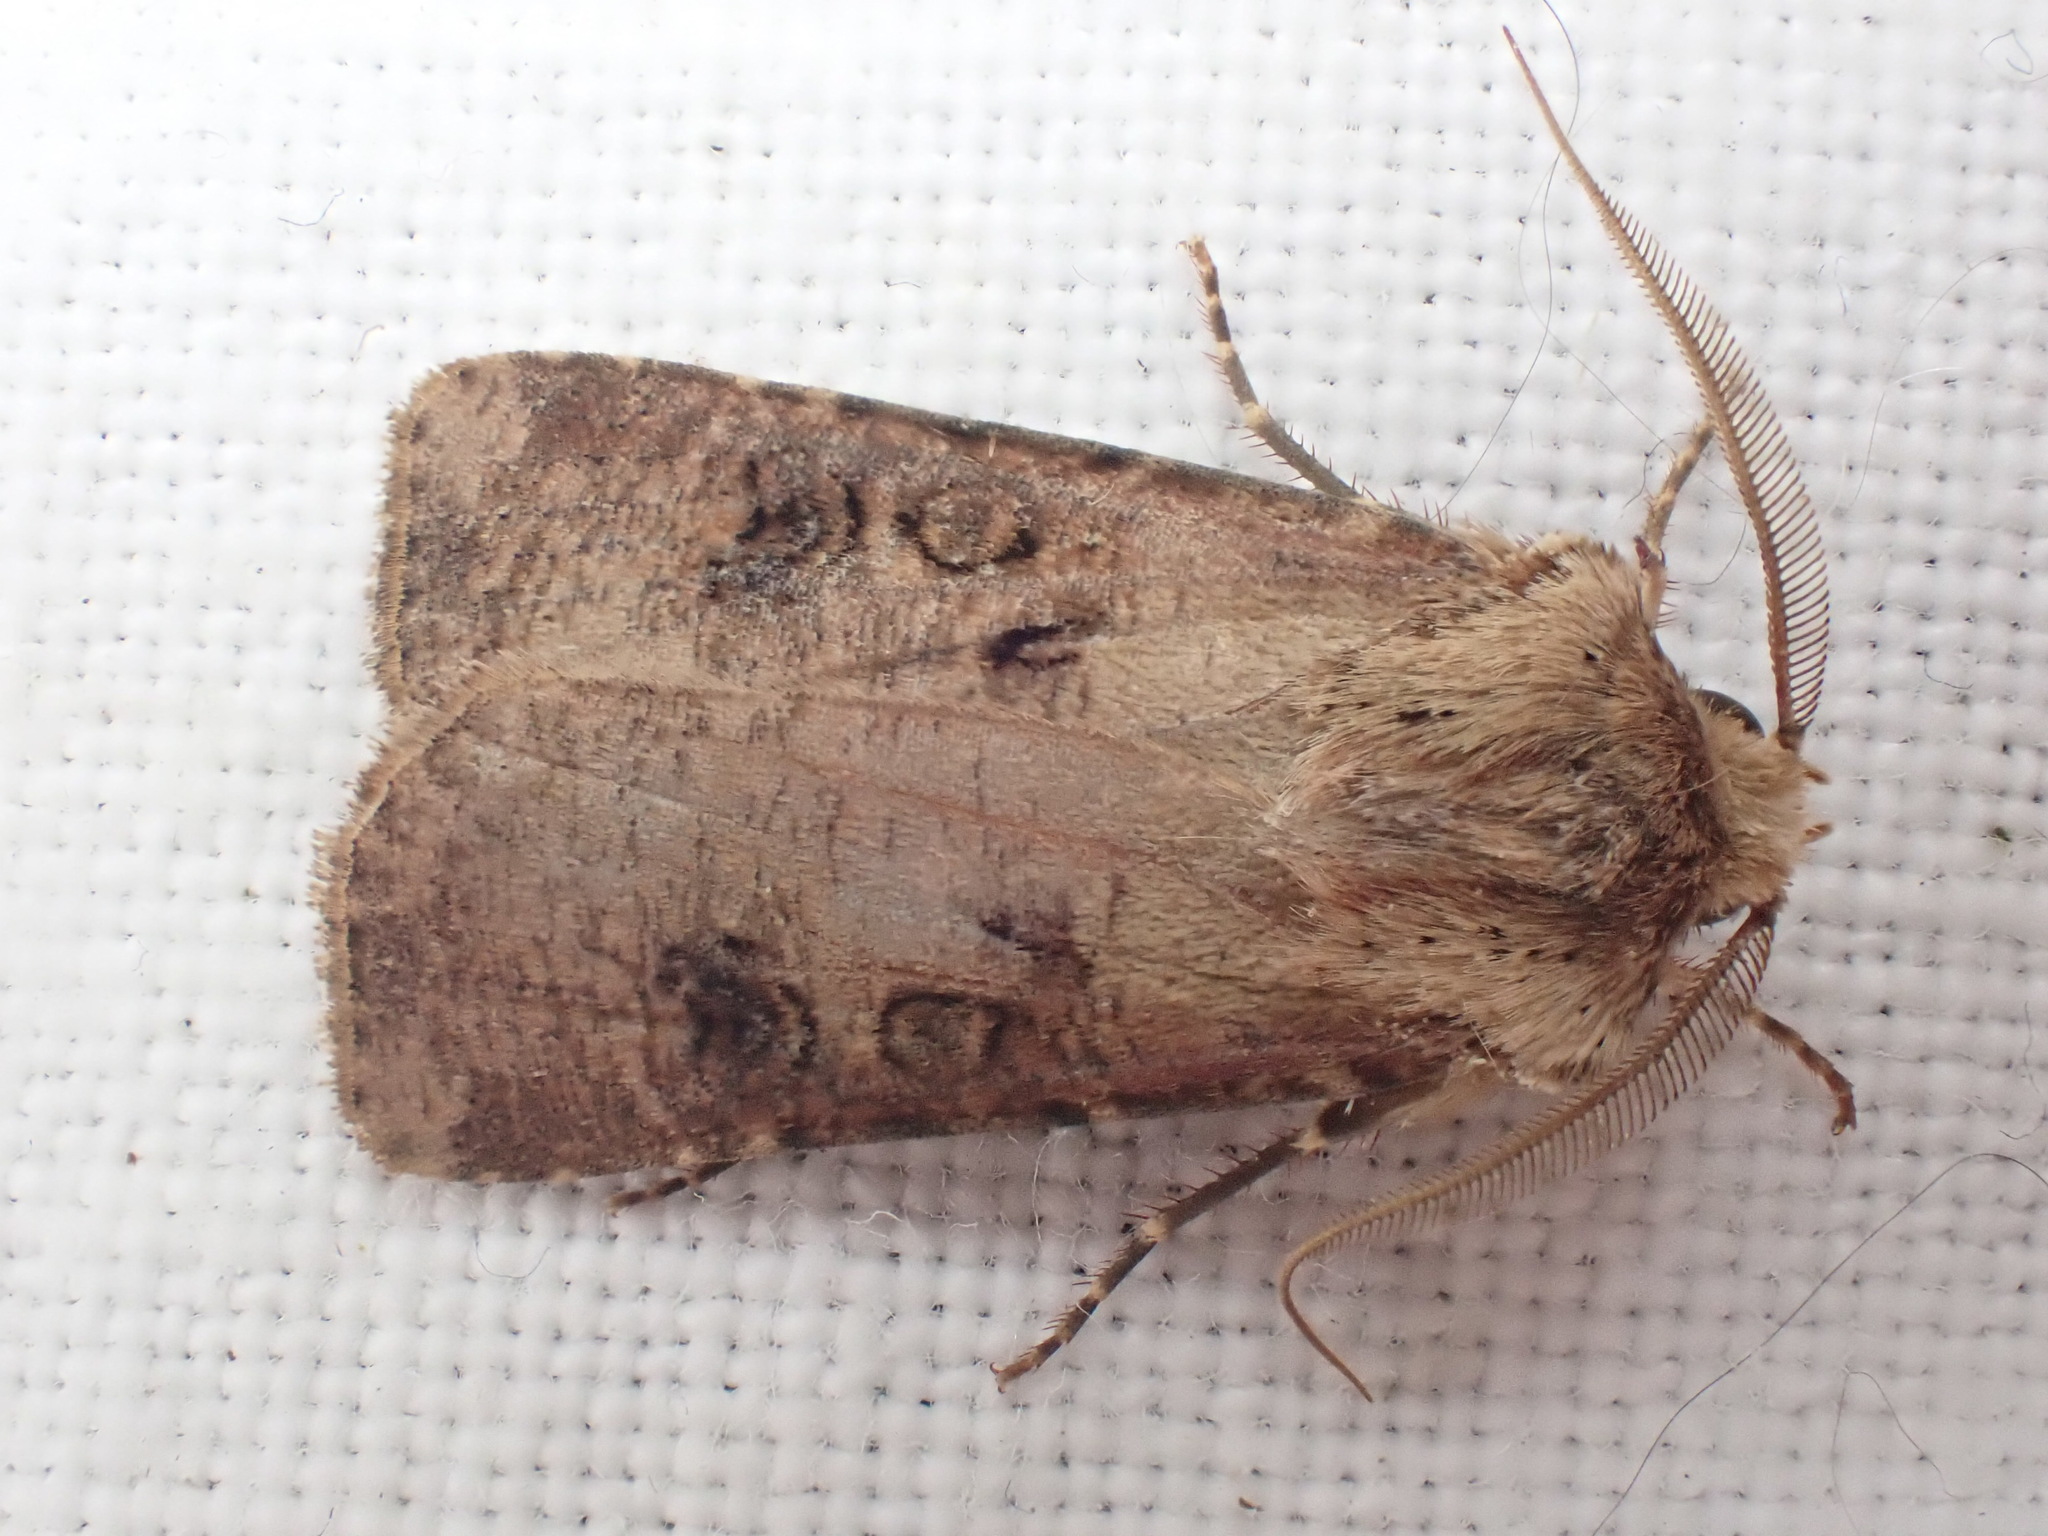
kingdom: Animalia
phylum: Arthropoda
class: Insecta
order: Lepidoptera
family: Noctuidae
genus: Agrotis
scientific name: Agrotis clavis
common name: Heart and club
